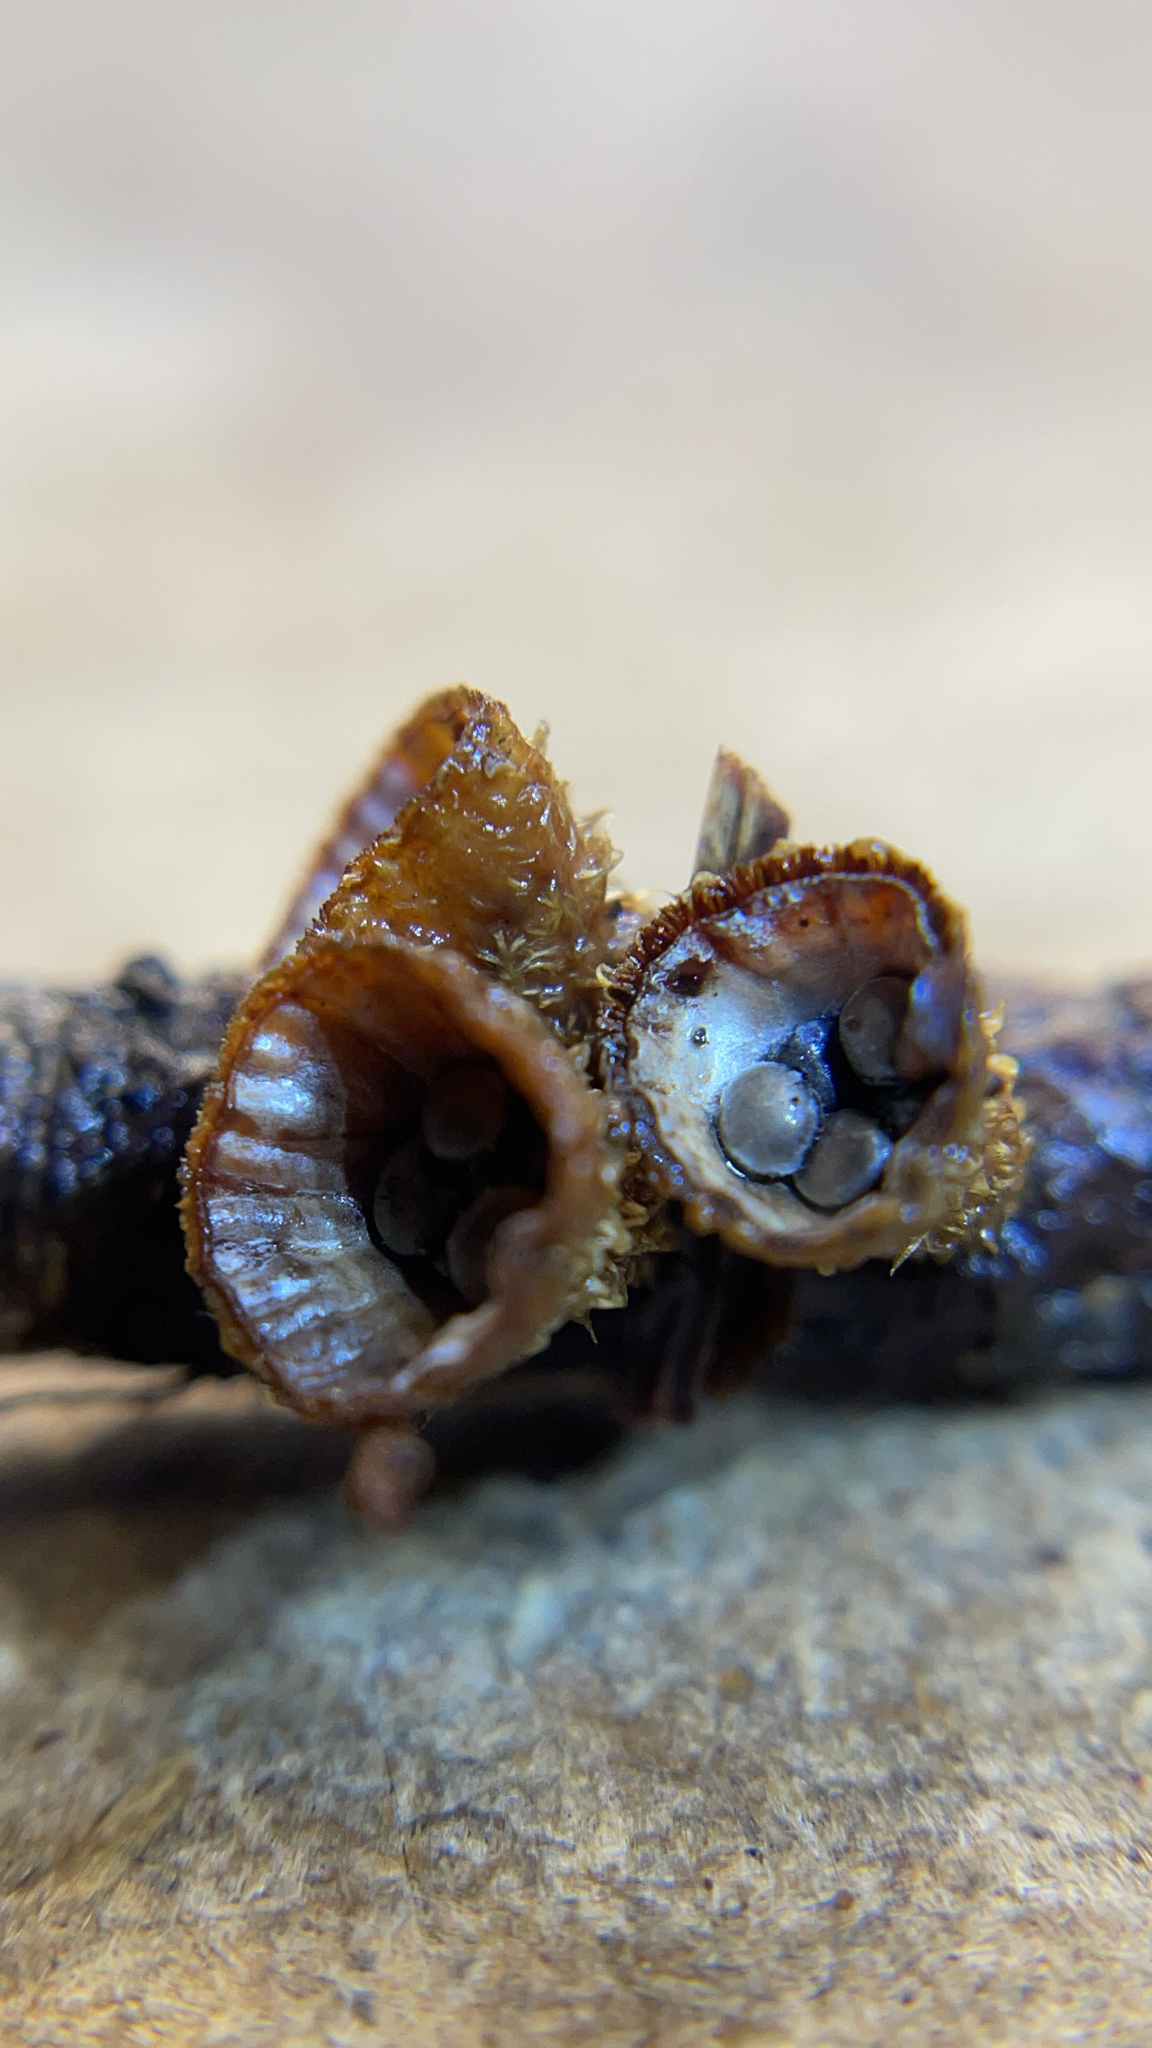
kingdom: Fungi
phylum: Basidiomycota
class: Agaricomycetes
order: Agaricales
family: Agaricaceae
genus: Cyathus
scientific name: Cyathus striatus
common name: Fluted bird's nest
